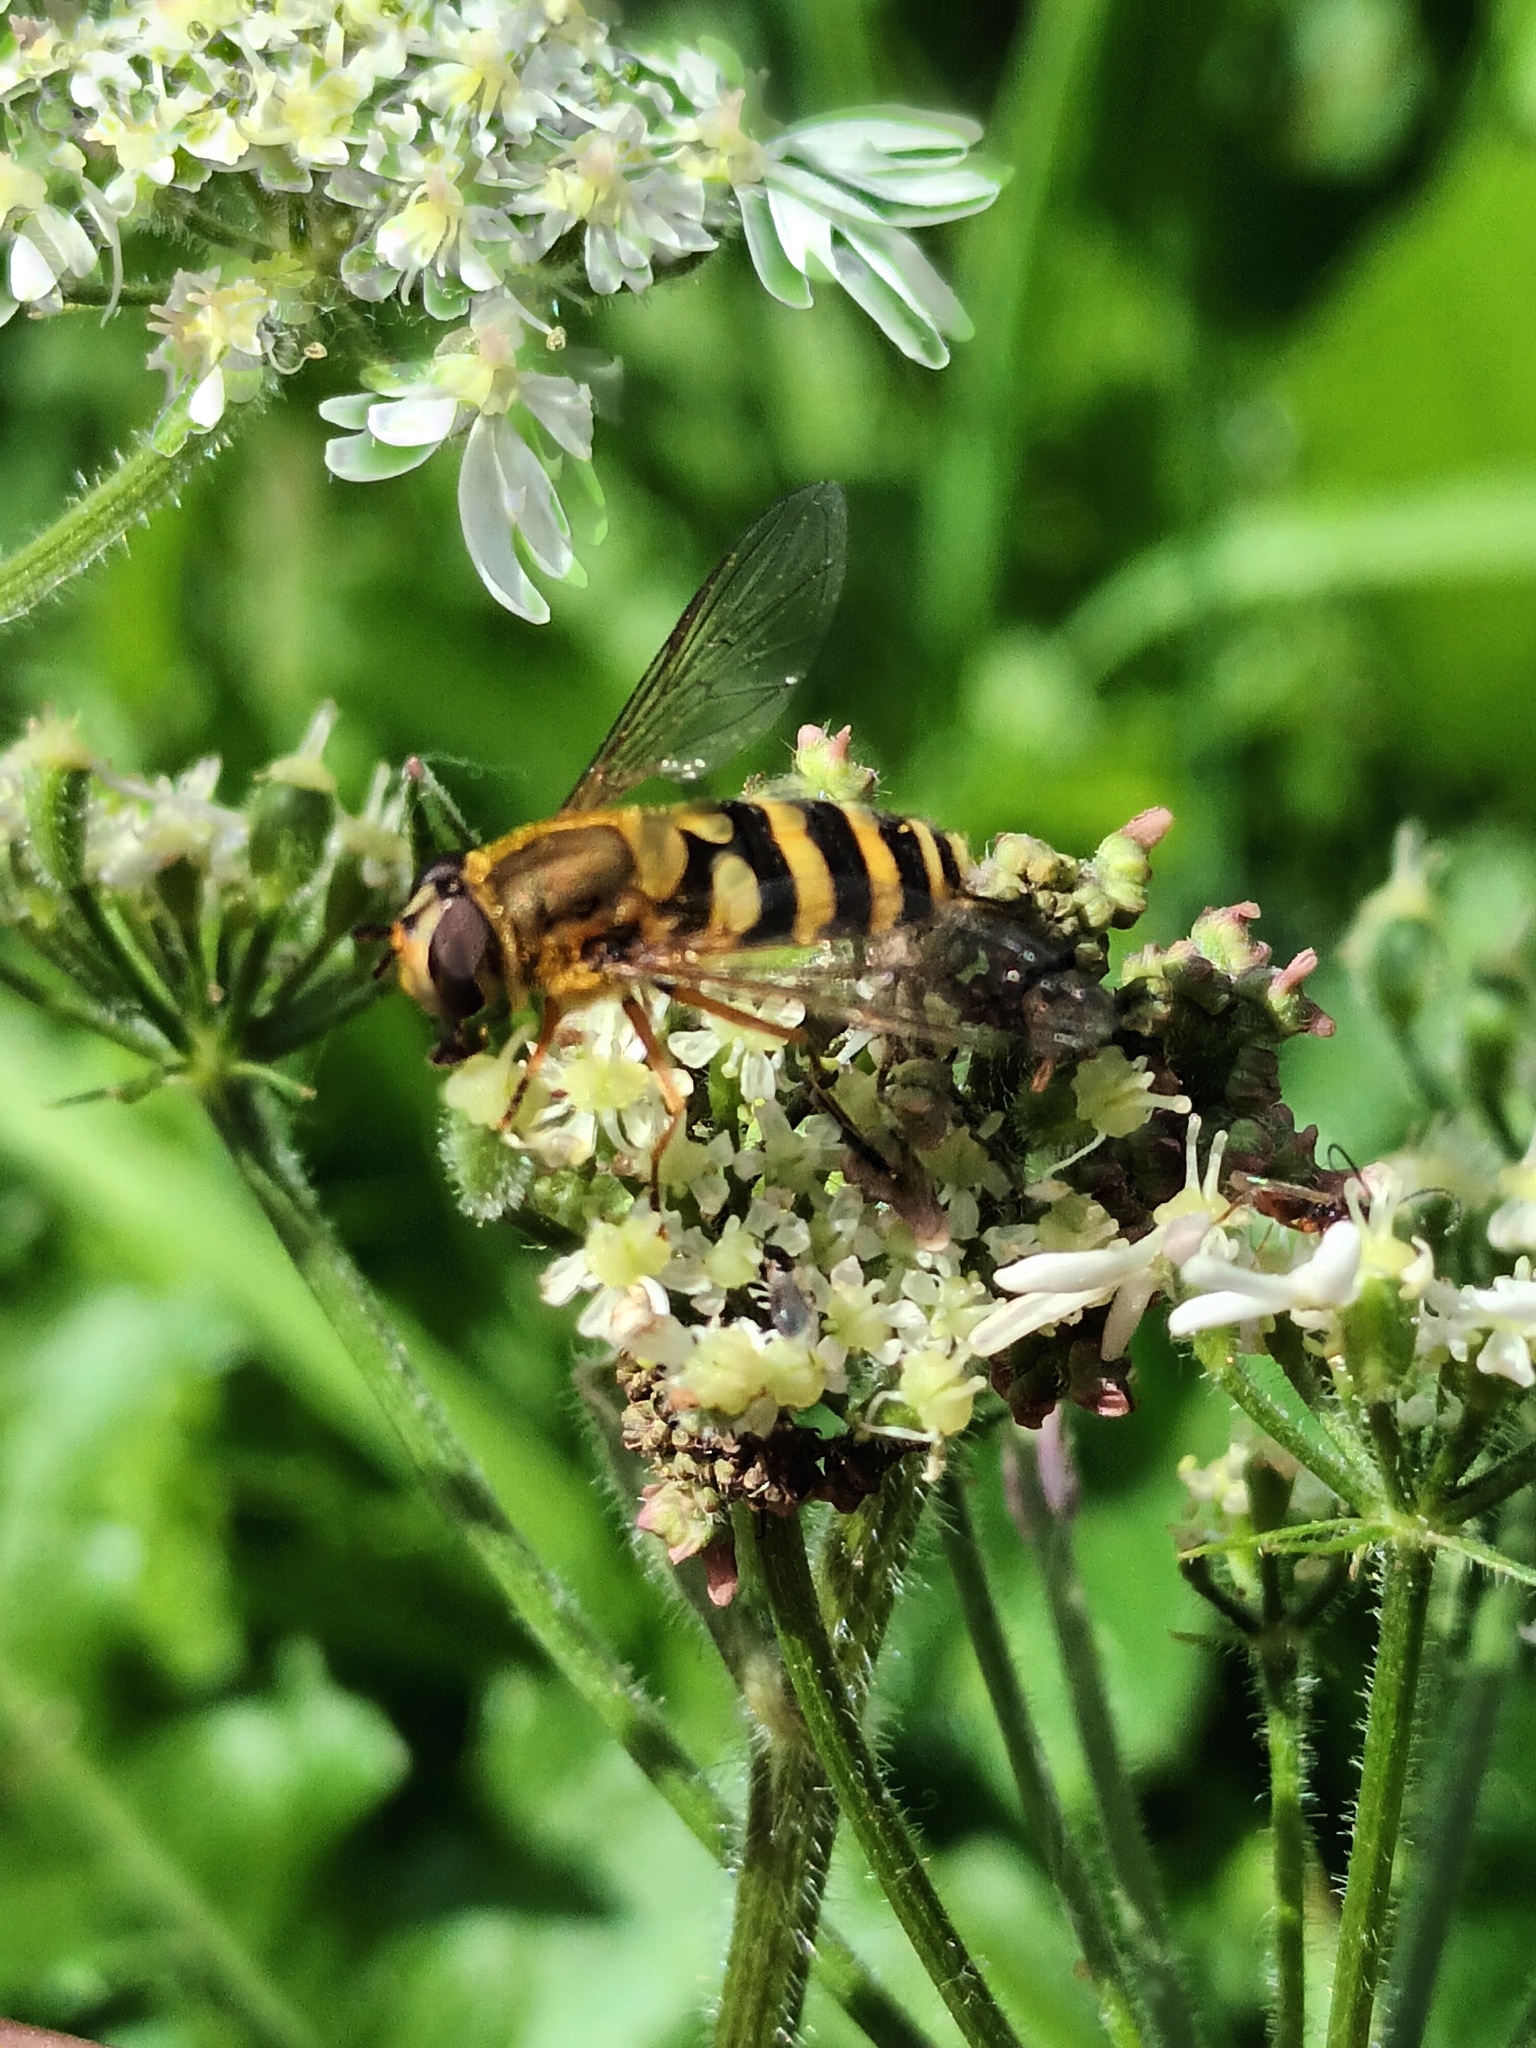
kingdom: Animalia
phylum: Arthropoda
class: Insecta
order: Diptera
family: Syrphidae
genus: Syrphus
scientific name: Syrphus ribesii
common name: Common flower fly
